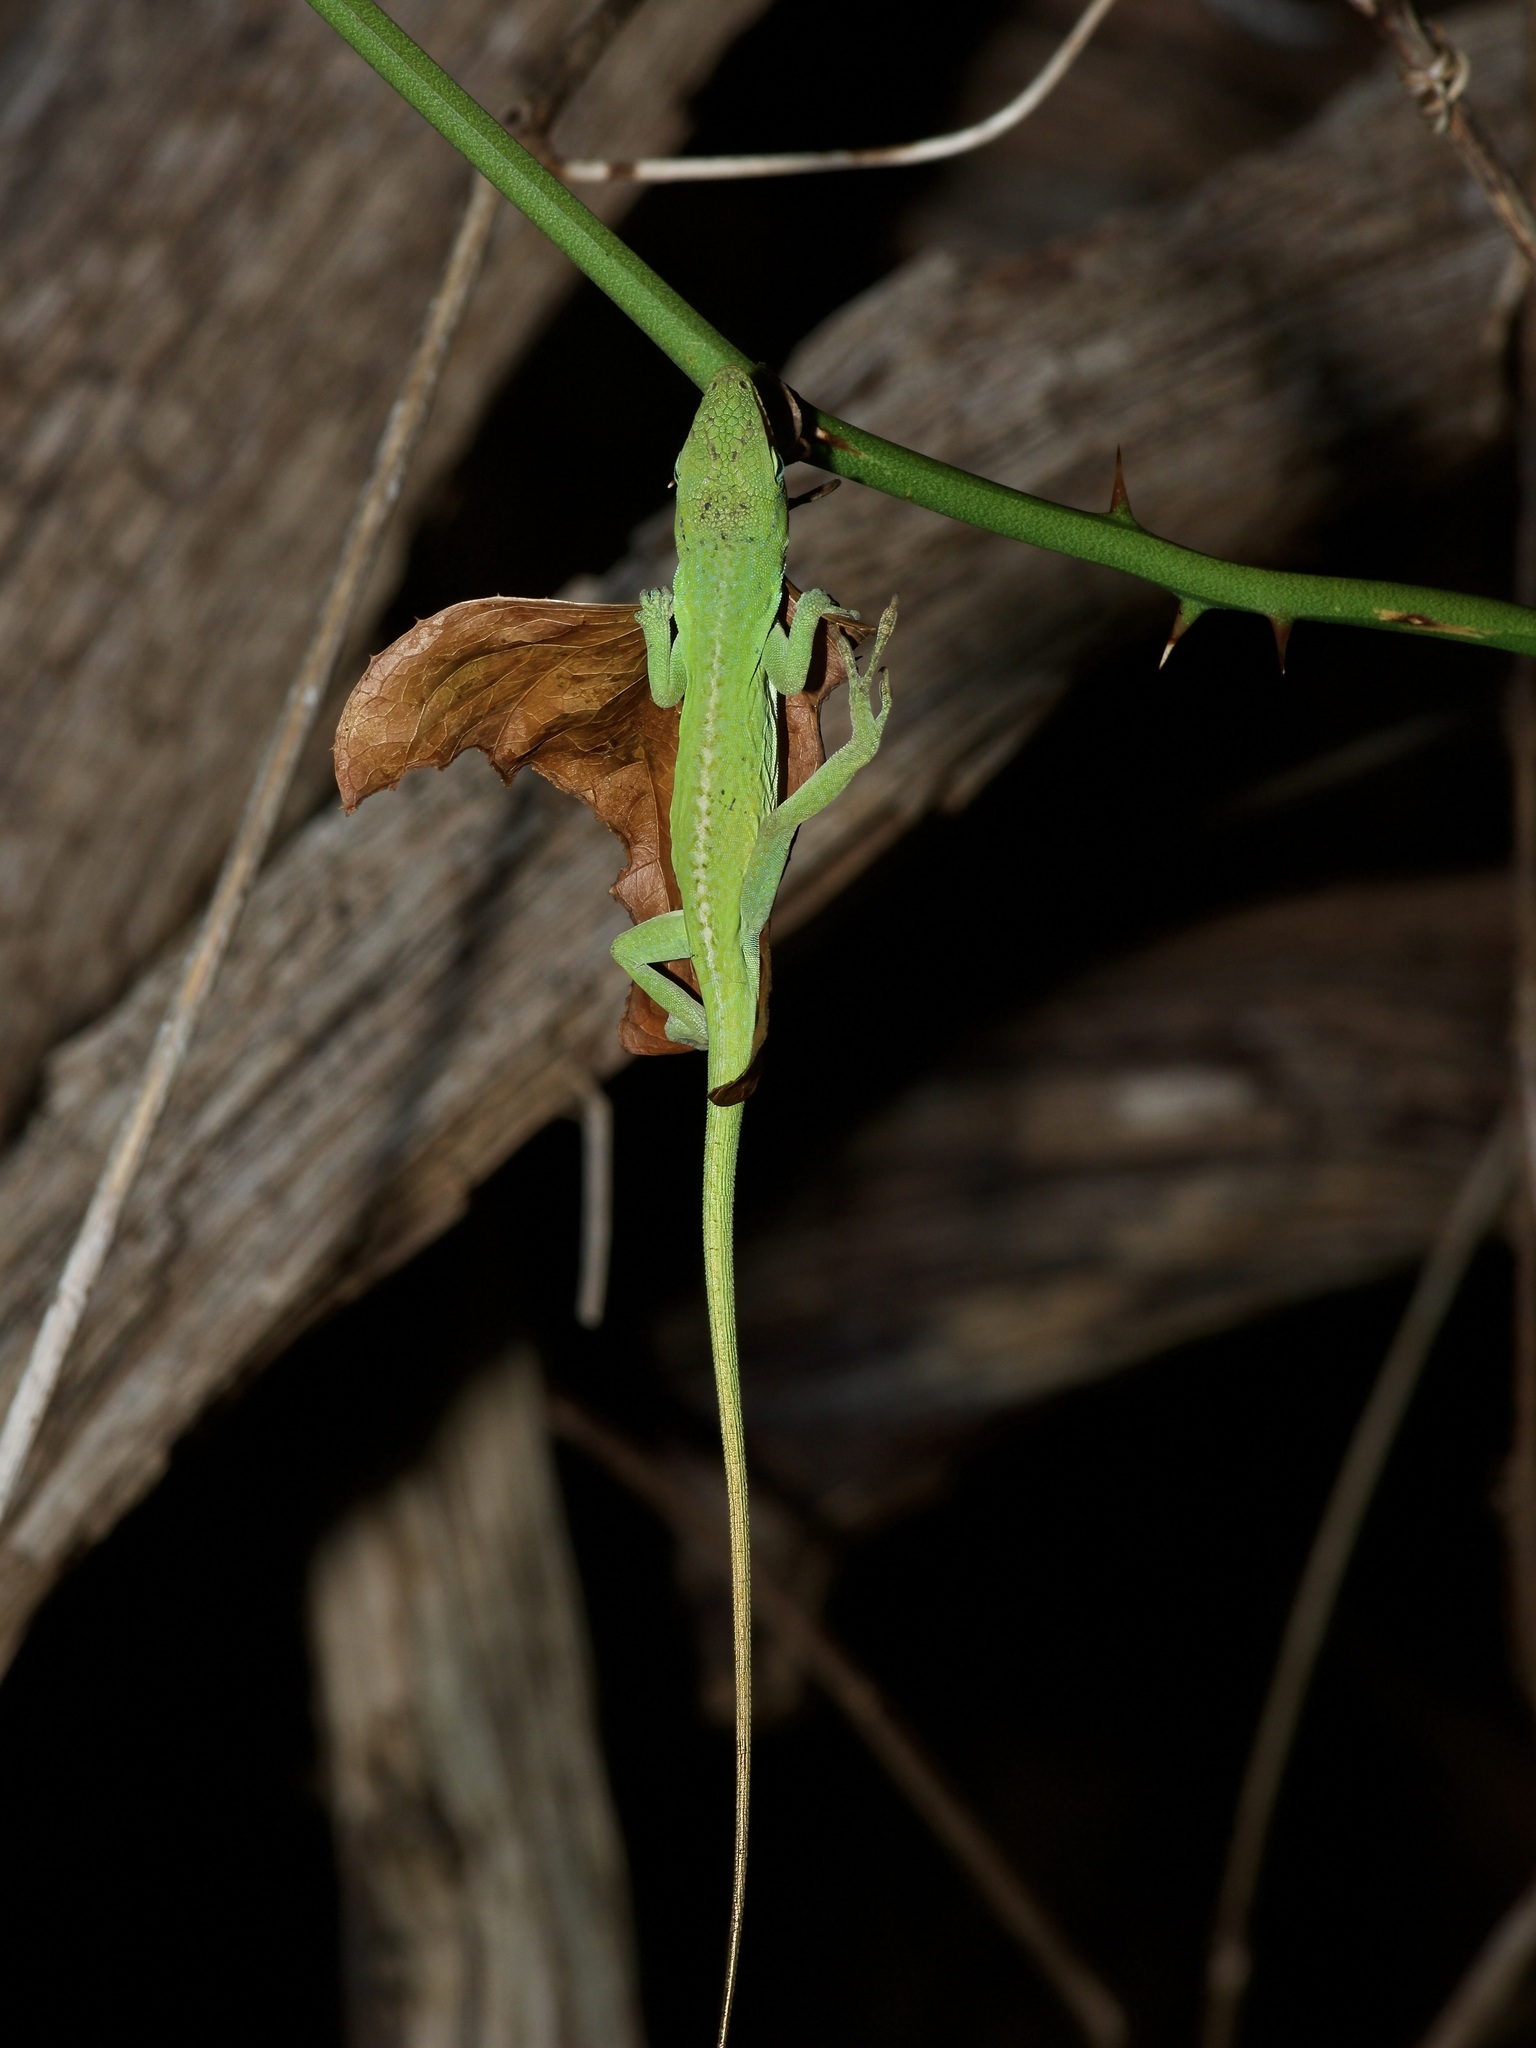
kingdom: Animalia
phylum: Chordata
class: Squamata
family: Dactyloidae
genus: Anolis
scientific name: Anolis carolinensis
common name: Green anole
